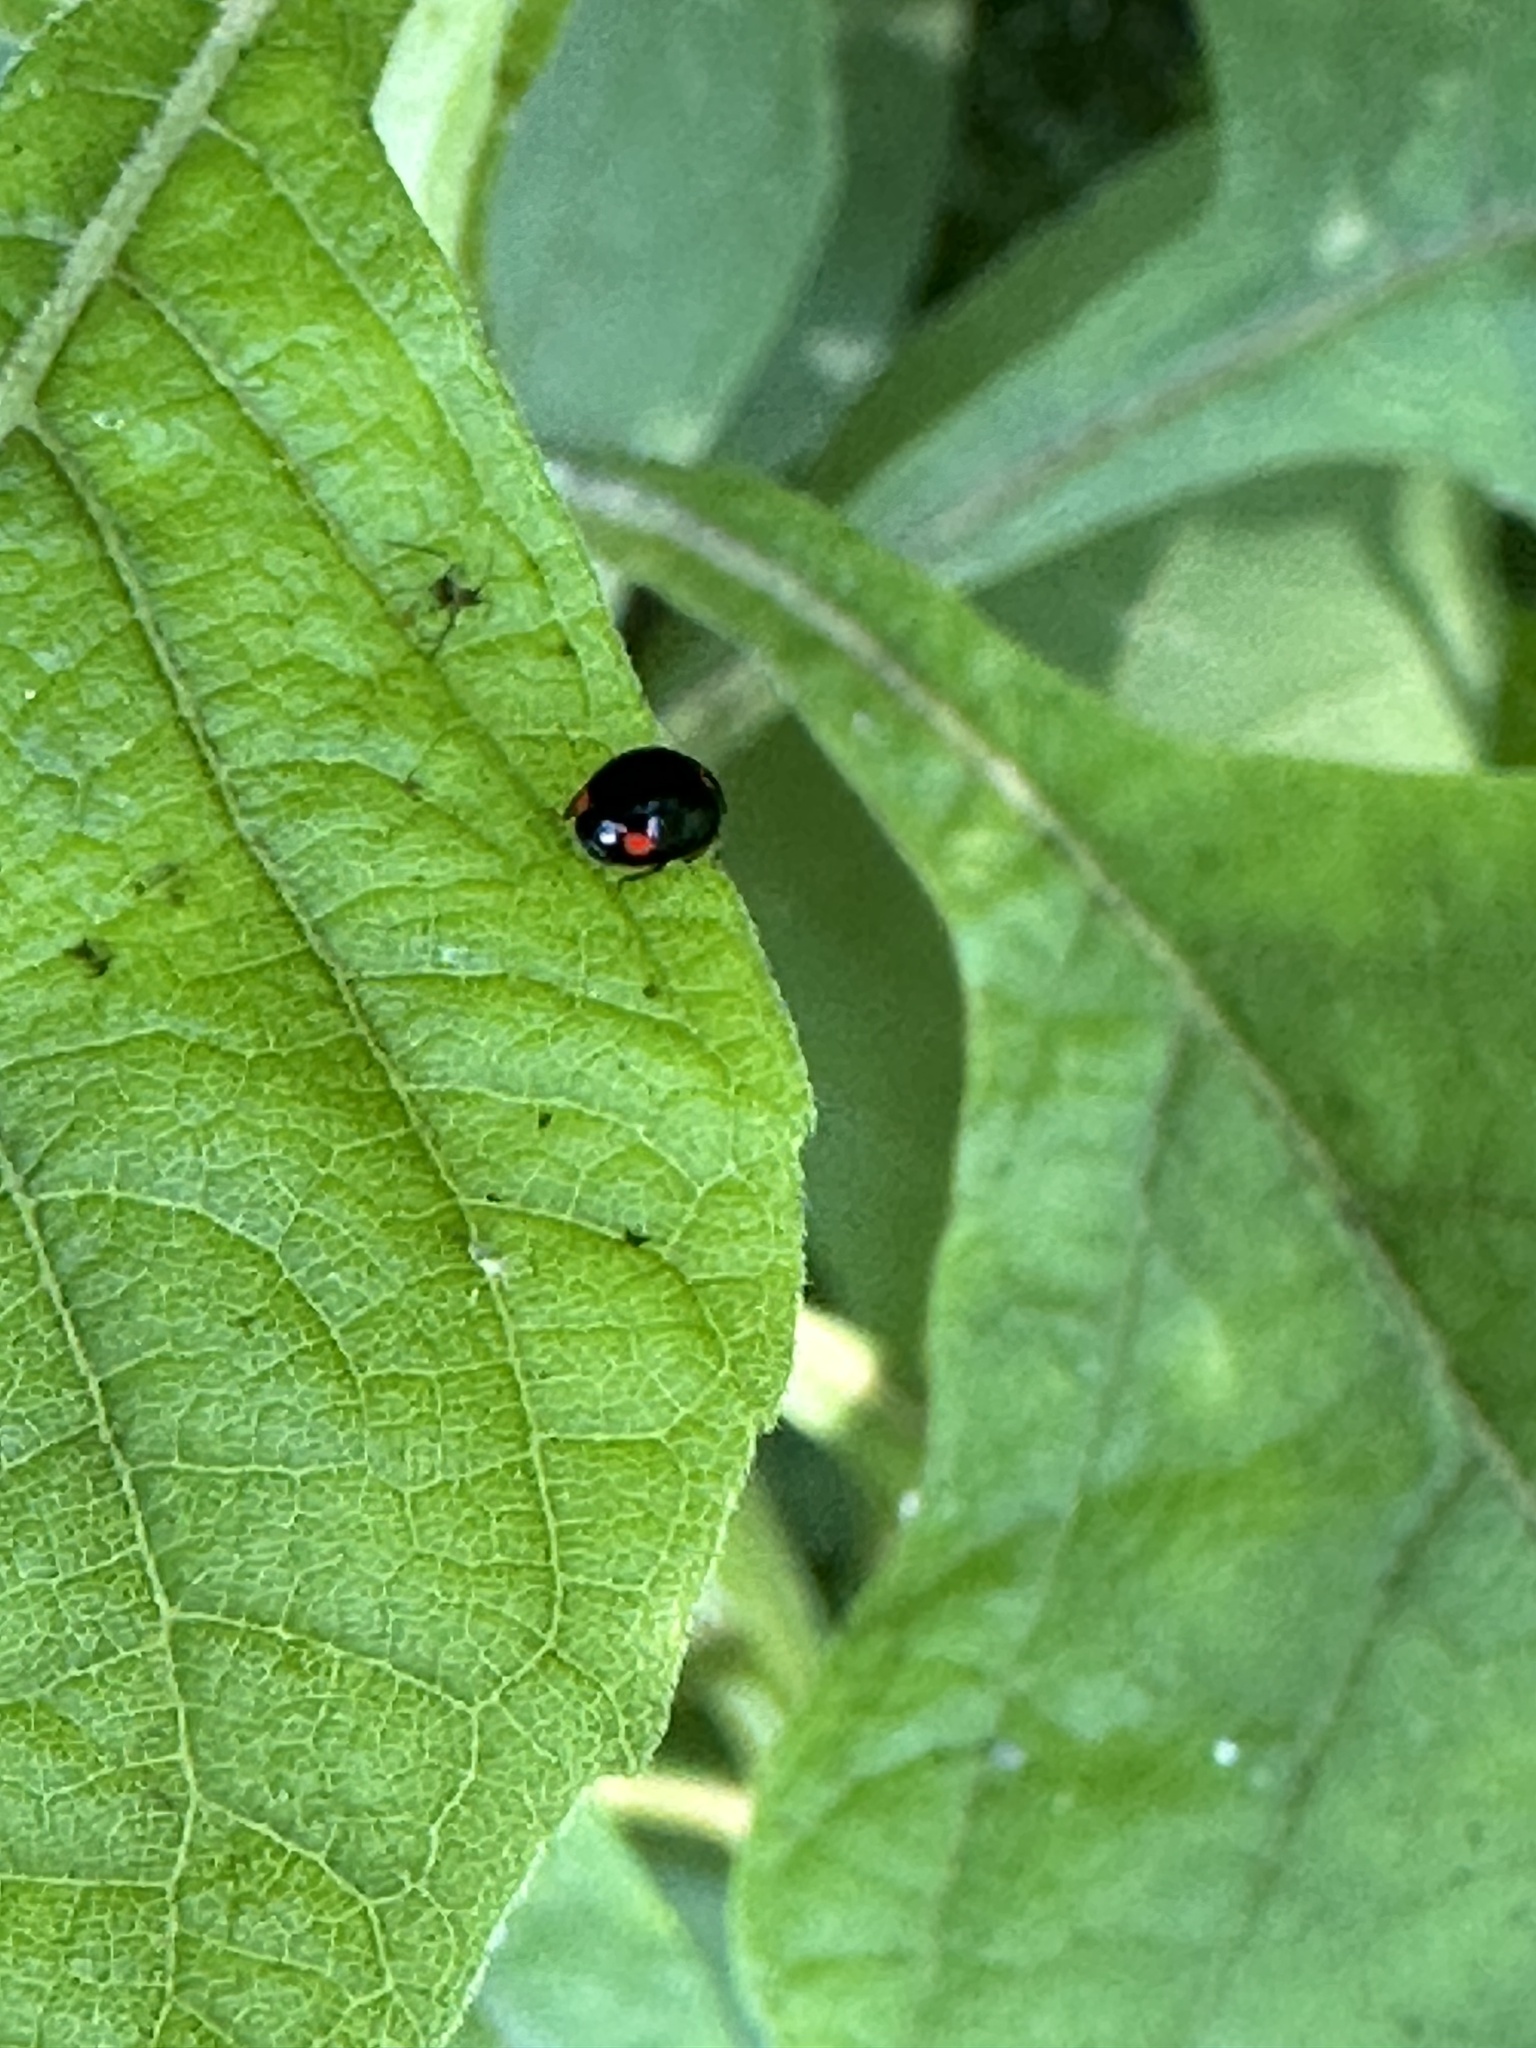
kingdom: Animalia
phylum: Arthropoda
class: Insecta
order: Coleoptera
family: Coccinellidae
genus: Brachiacantha
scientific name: Brachiacantha quadripunctata
